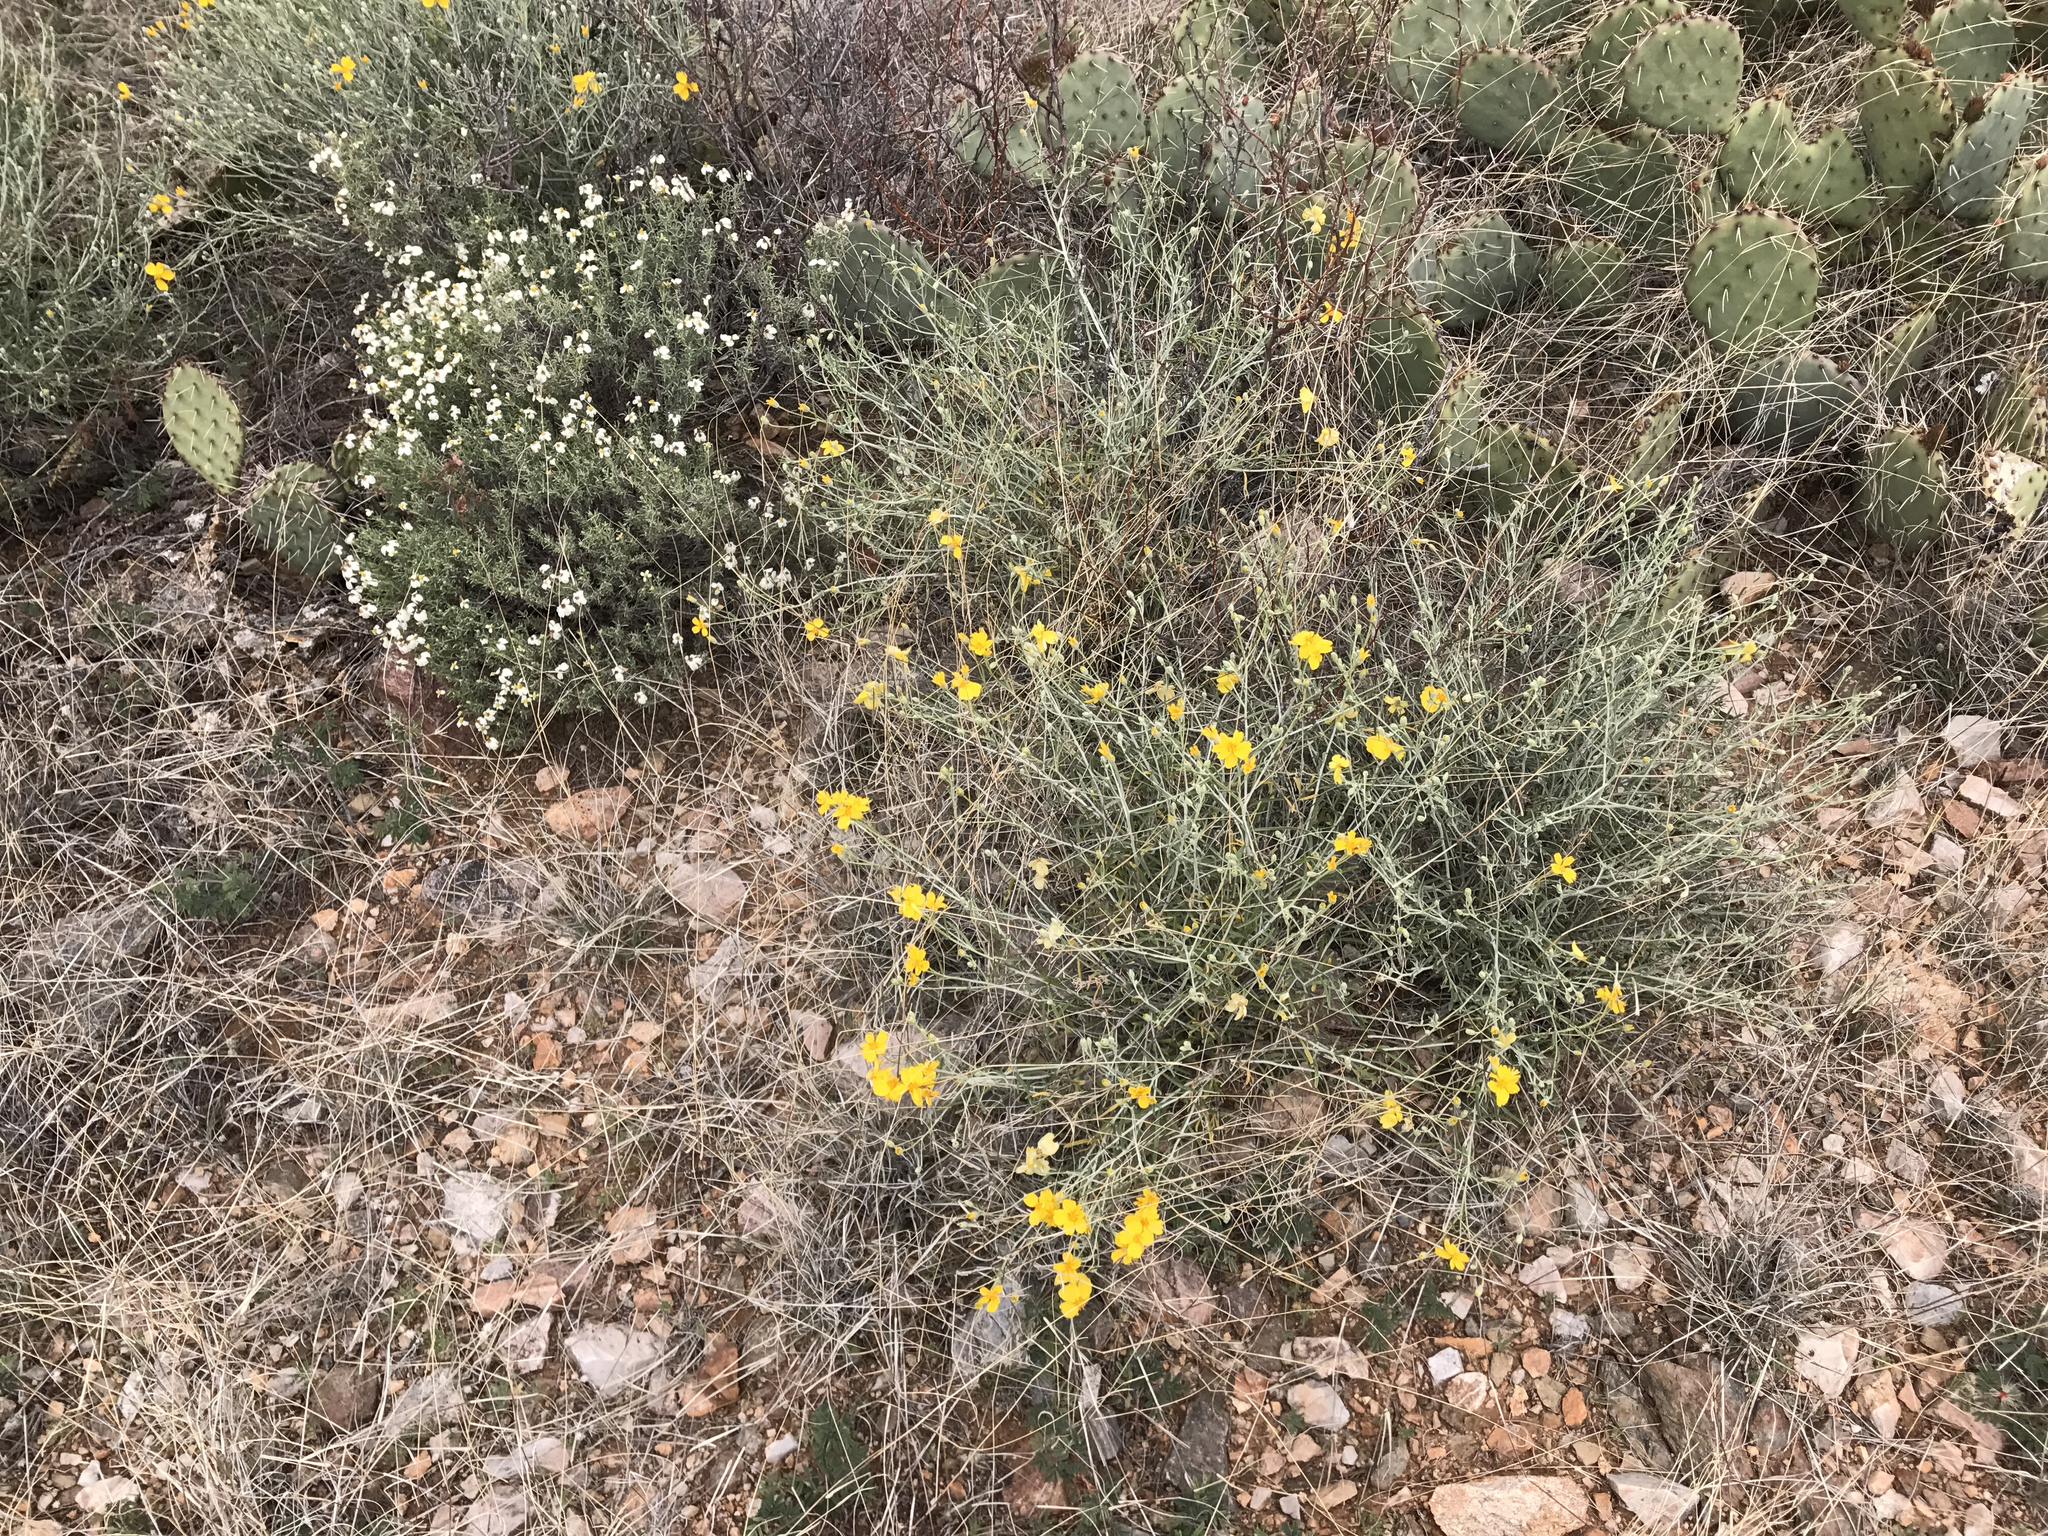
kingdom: Plantae
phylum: Tracheophyta
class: Magnoliopsida
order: Asterales
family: Asteraceae
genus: Zinnia
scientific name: Zinnia acerosa
